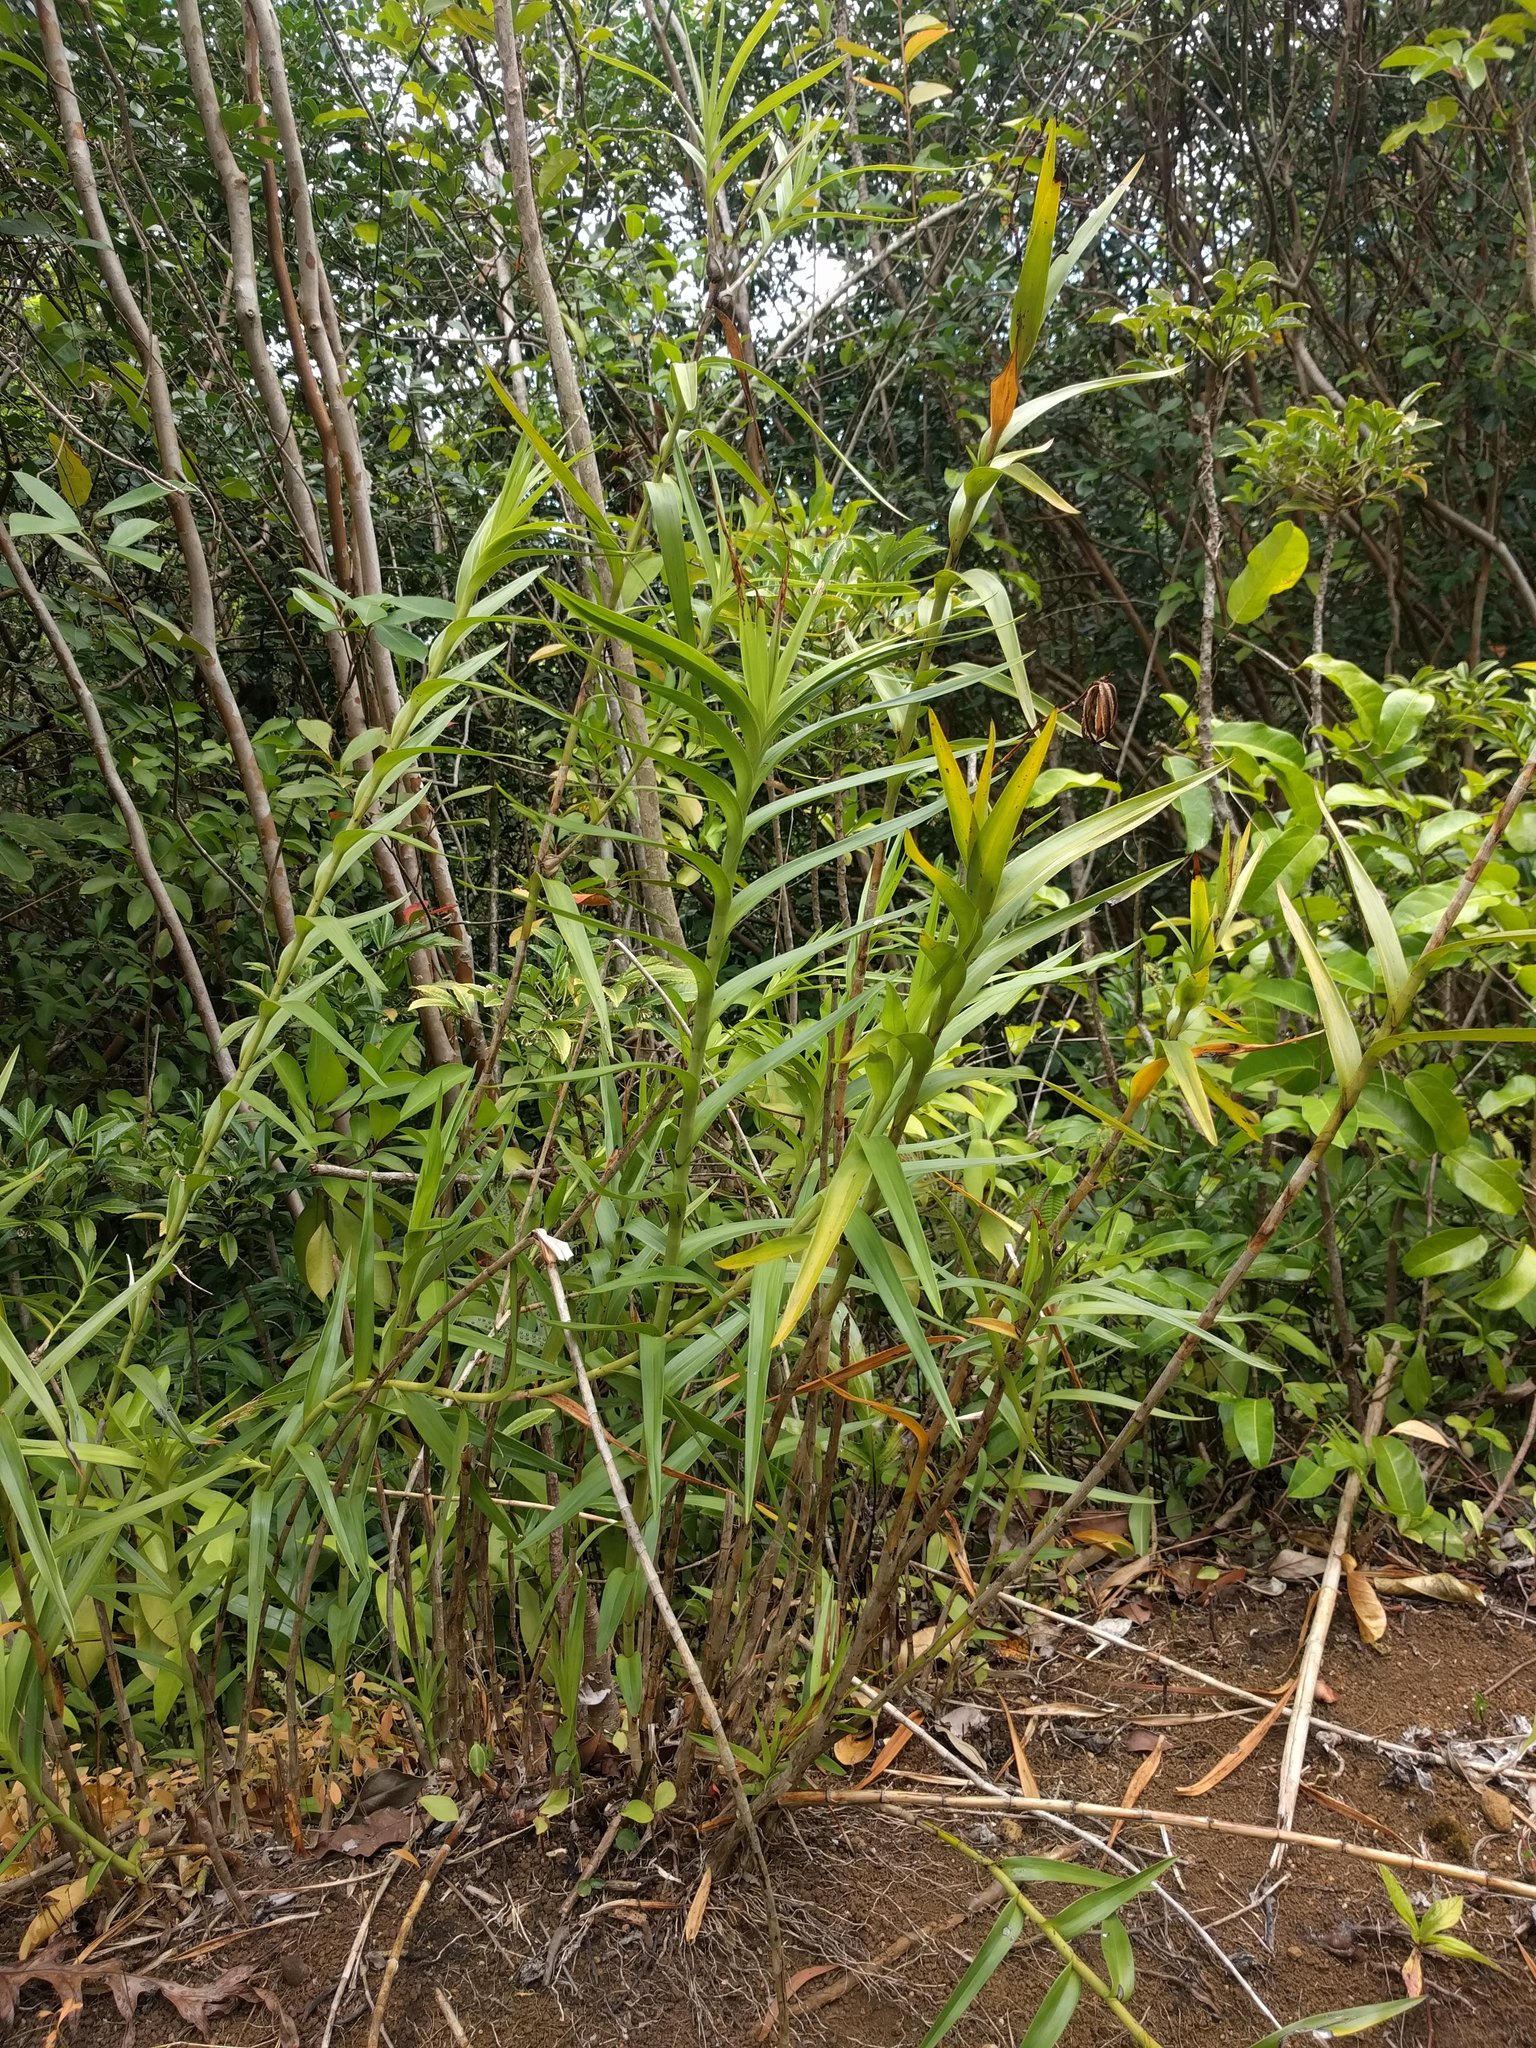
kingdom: Plantae
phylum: Tracheophyta
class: Liliopsida
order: Asparagales
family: Orchidaceae
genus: Arundina
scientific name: Arundina graminifolia
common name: Bamboo orchid
